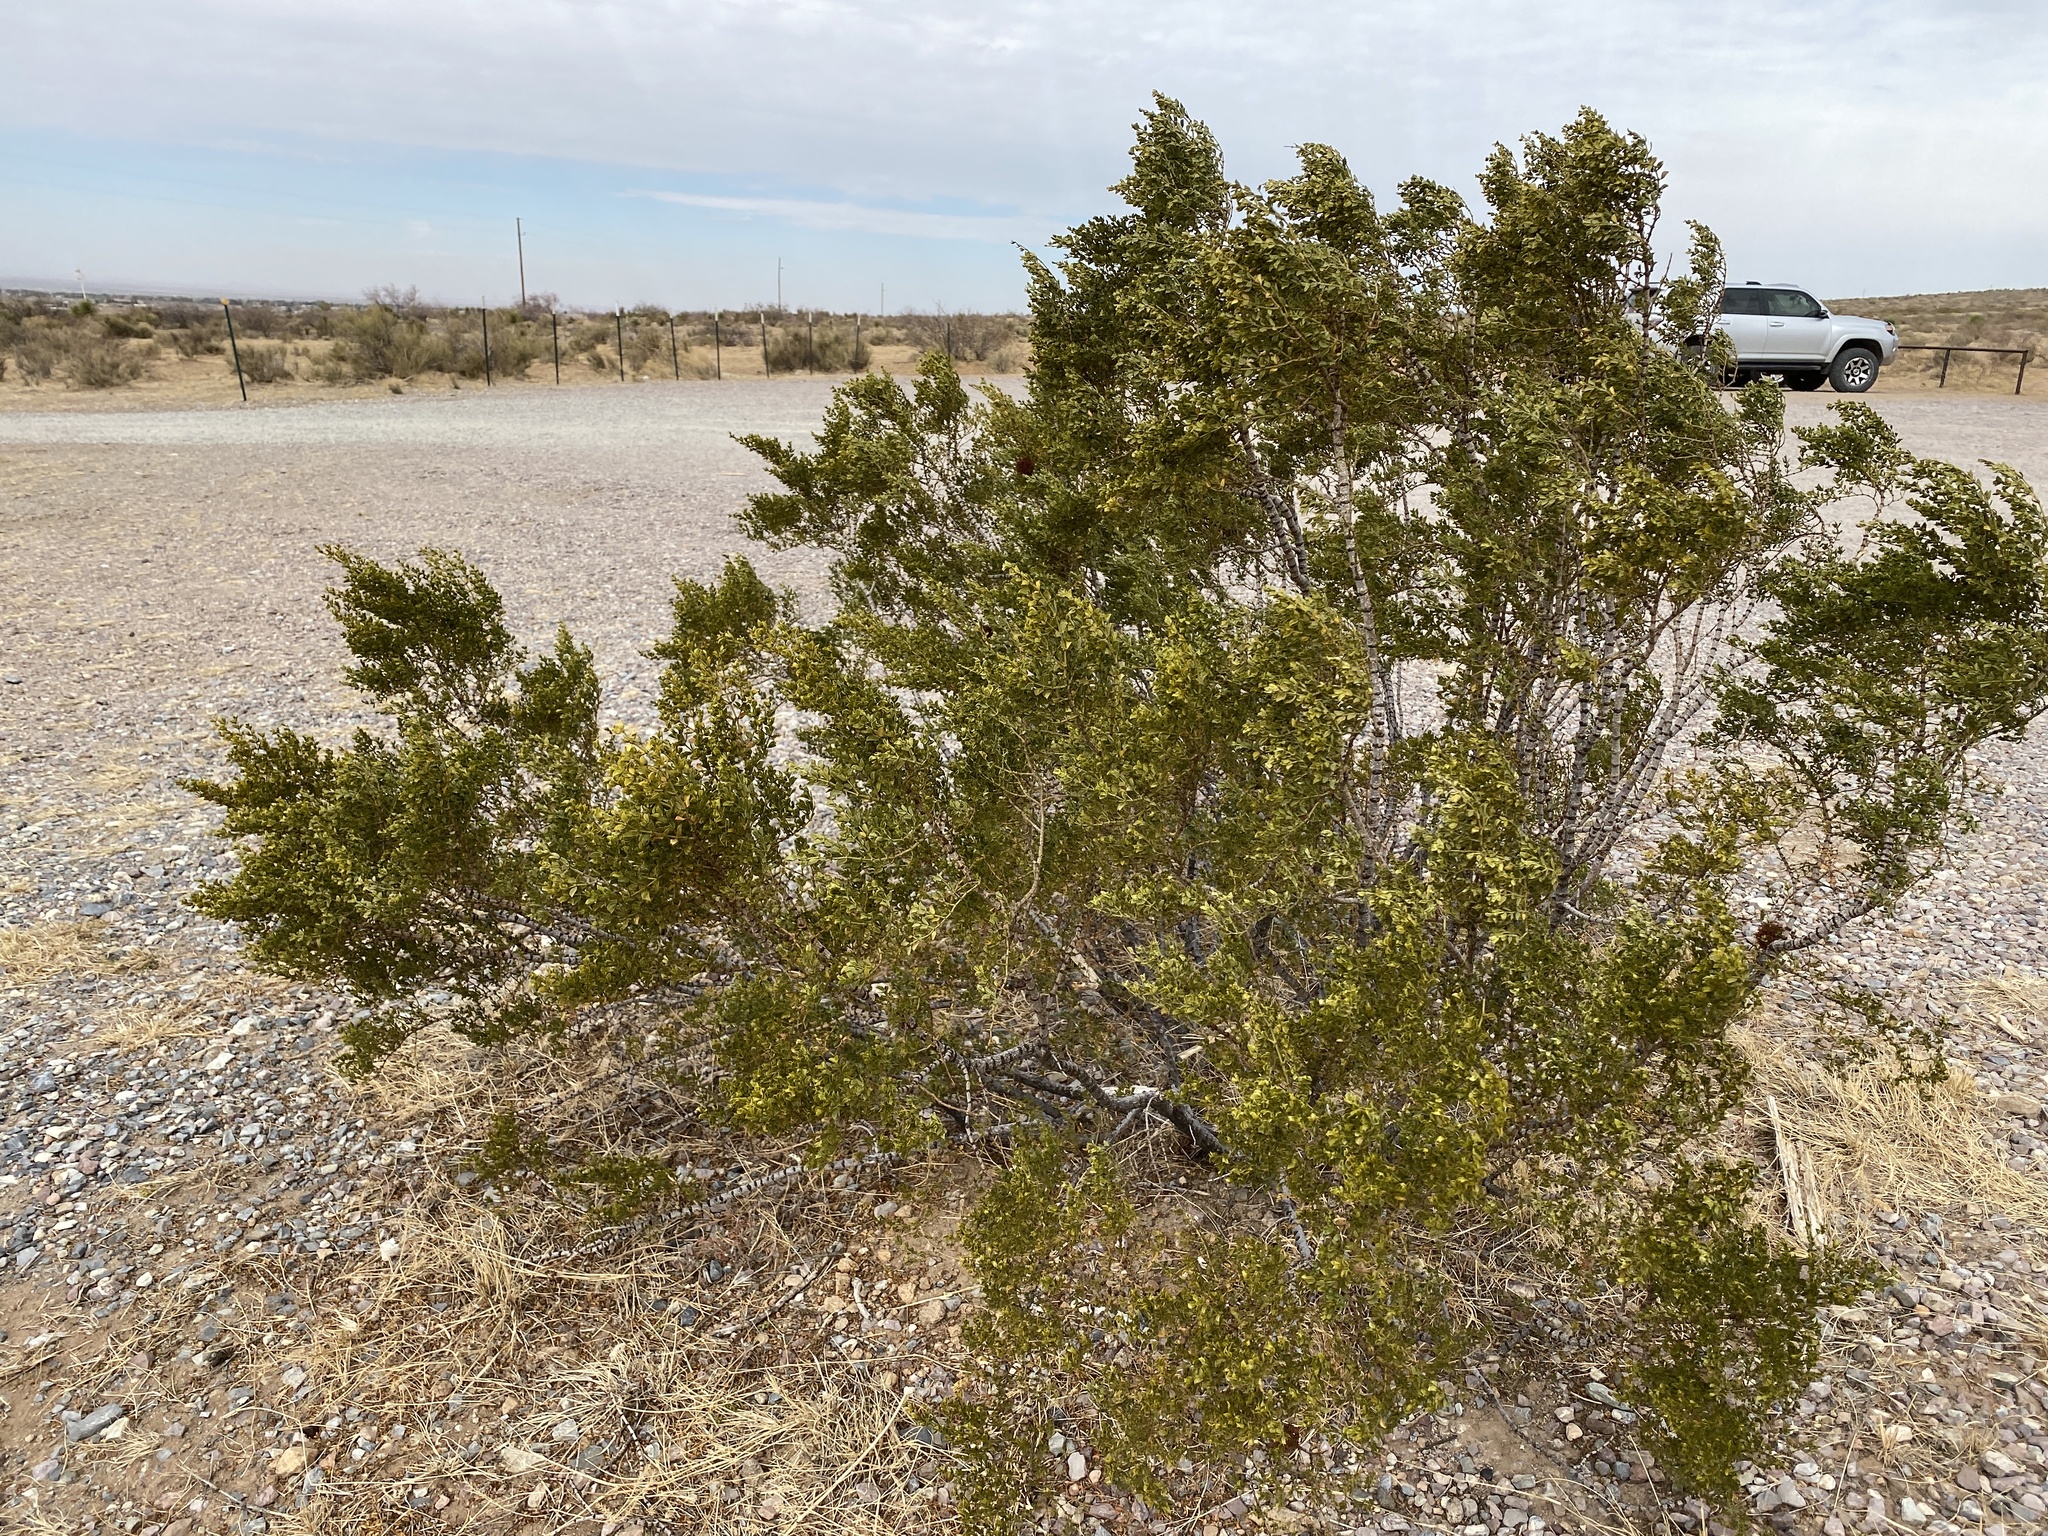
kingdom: Plantae
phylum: Tracheophyta
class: Magnoliopsida
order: Zygophyllales
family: Zygophyllaceae
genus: Larrea
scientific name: Larrea tridentata
